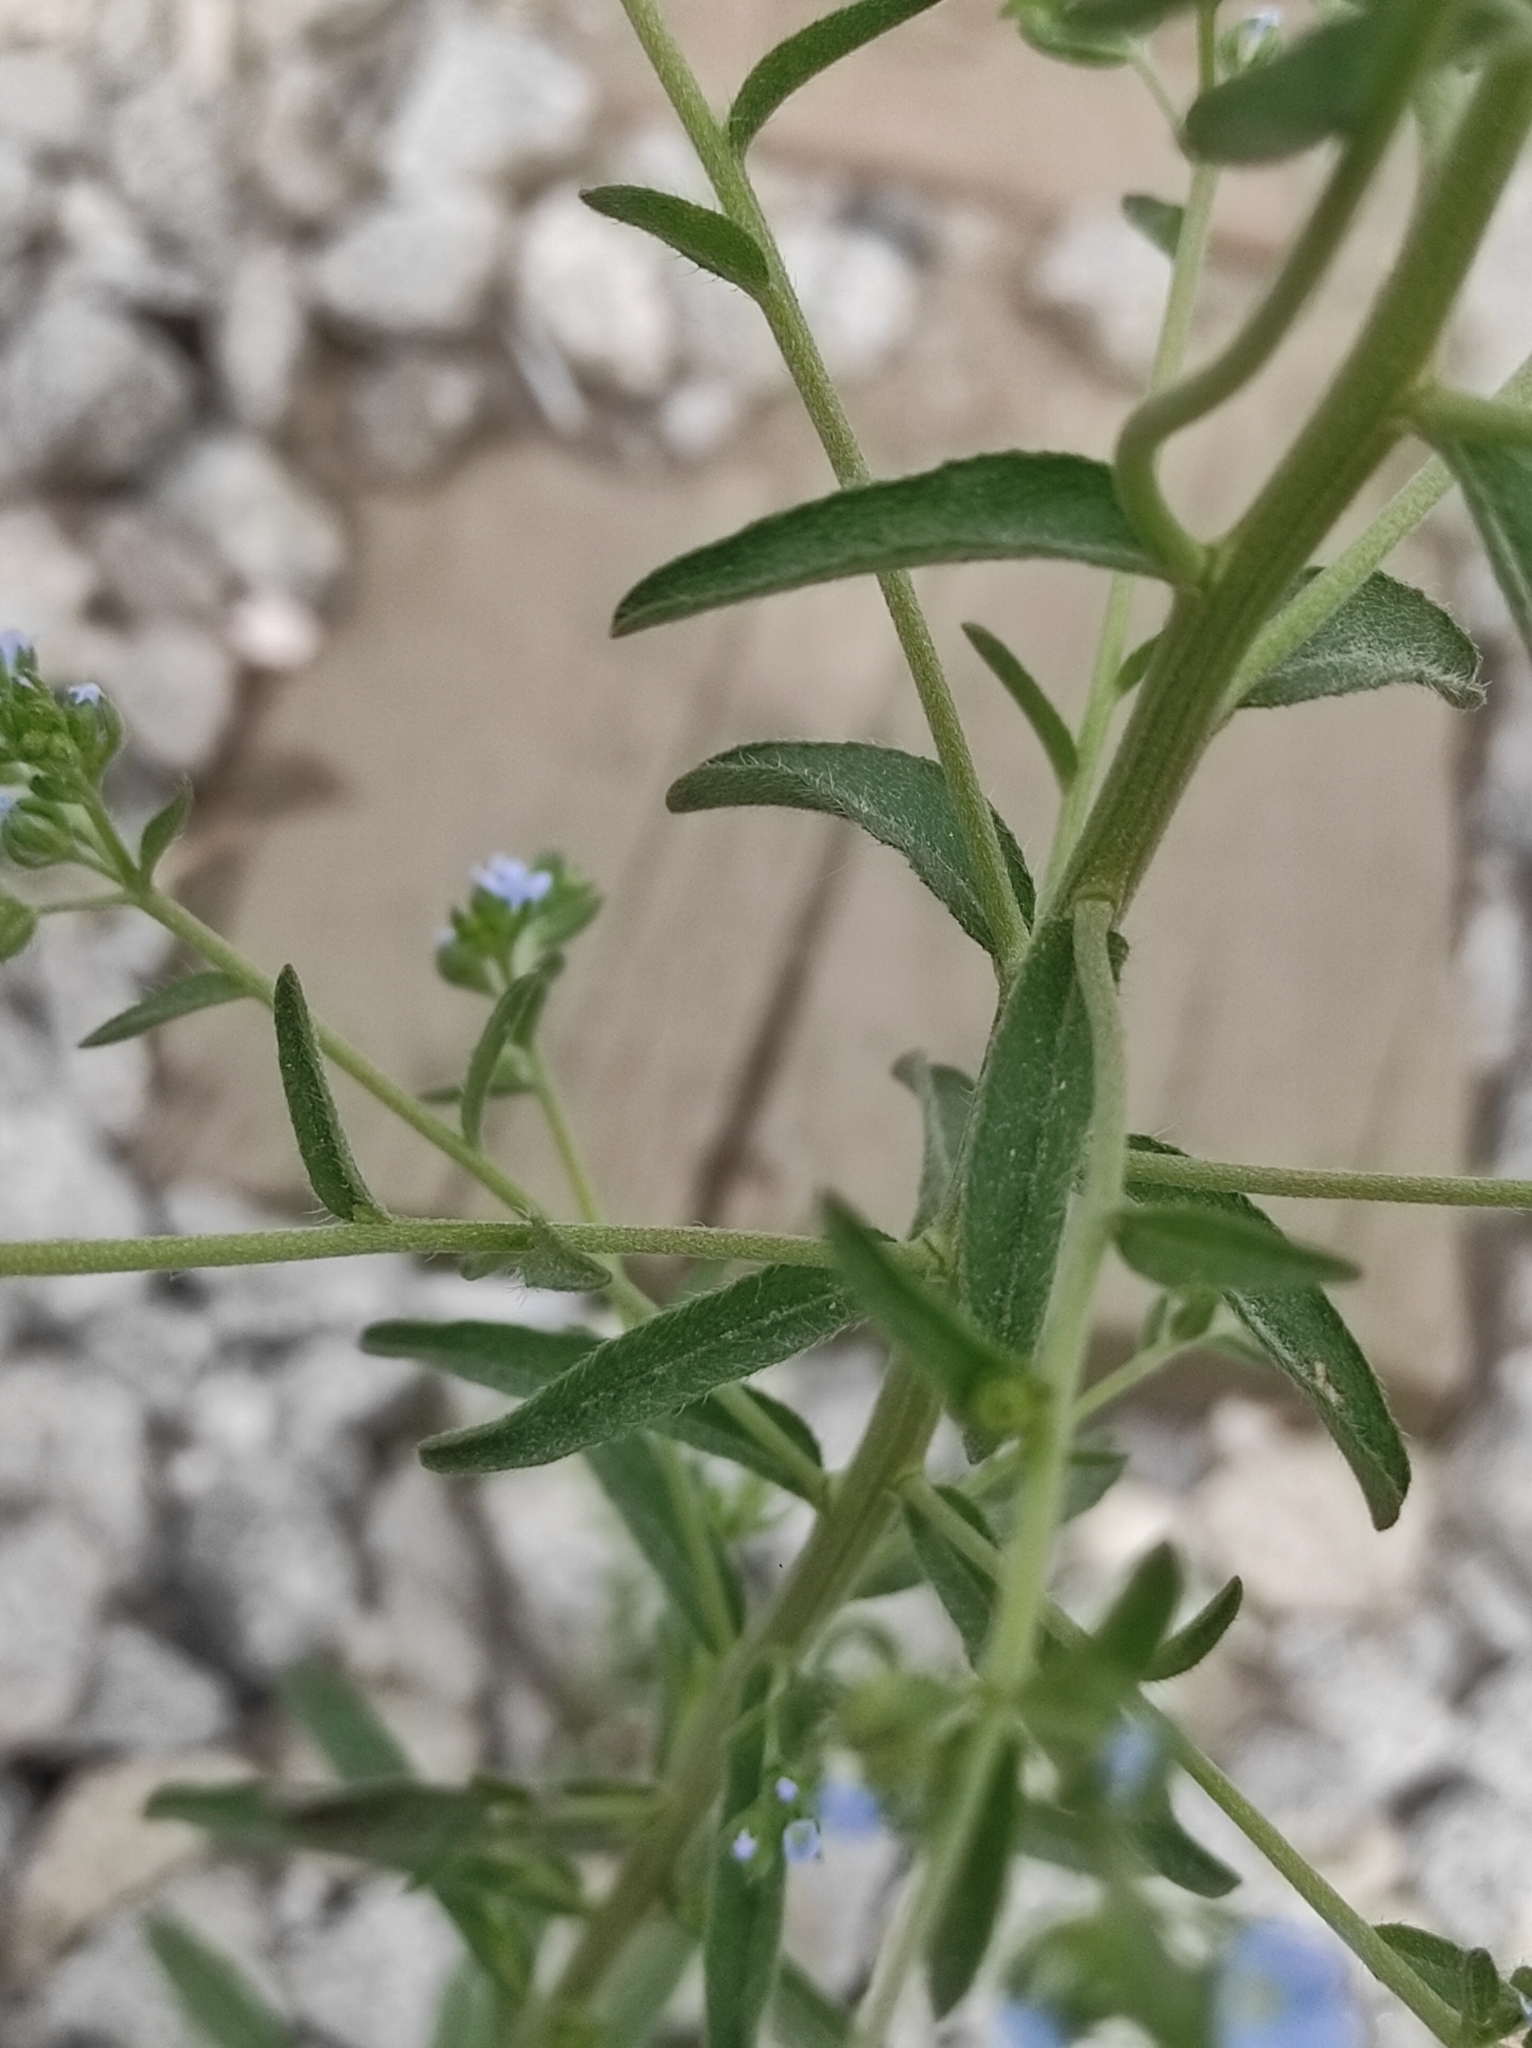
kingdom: Plantae
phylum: Tracheophyta
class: Magnoliopsida
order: Boraginales
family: Boraginaceae
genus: Lappula
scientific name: Lappula squarrosa
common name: European stickseed
